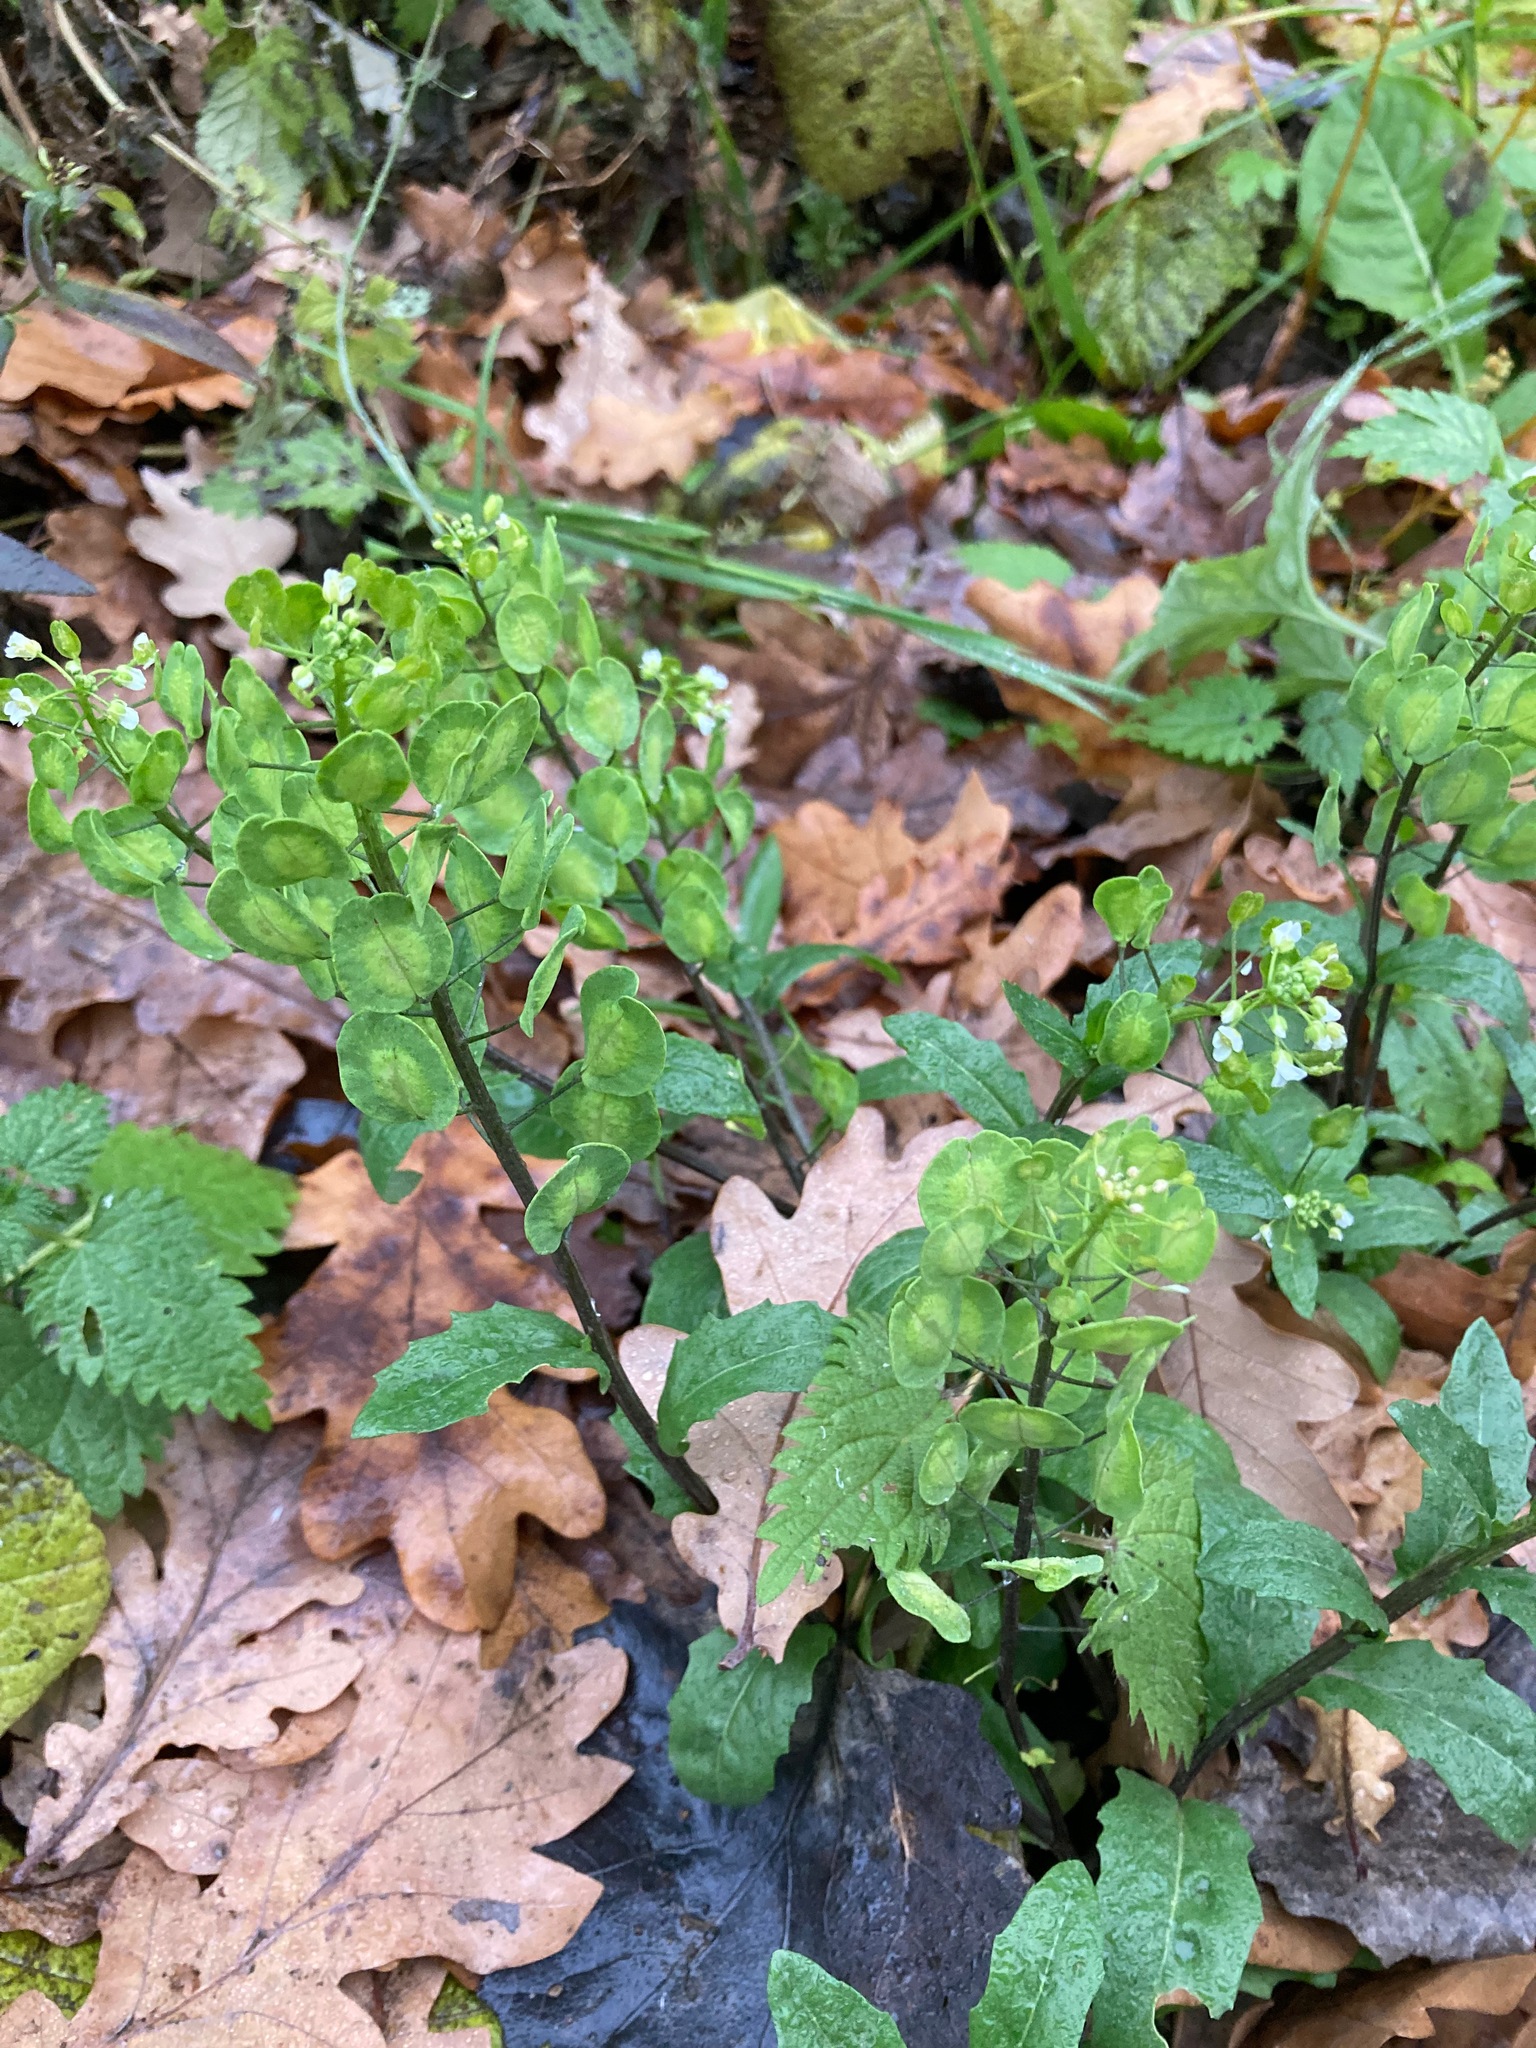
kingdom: Plantae
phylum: Tracheophyta
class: Magnoliopsida
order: Brassicales
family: Brassicaceae
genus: Thlaspi
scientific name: Thlaspi arvense
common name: Field pennycress
